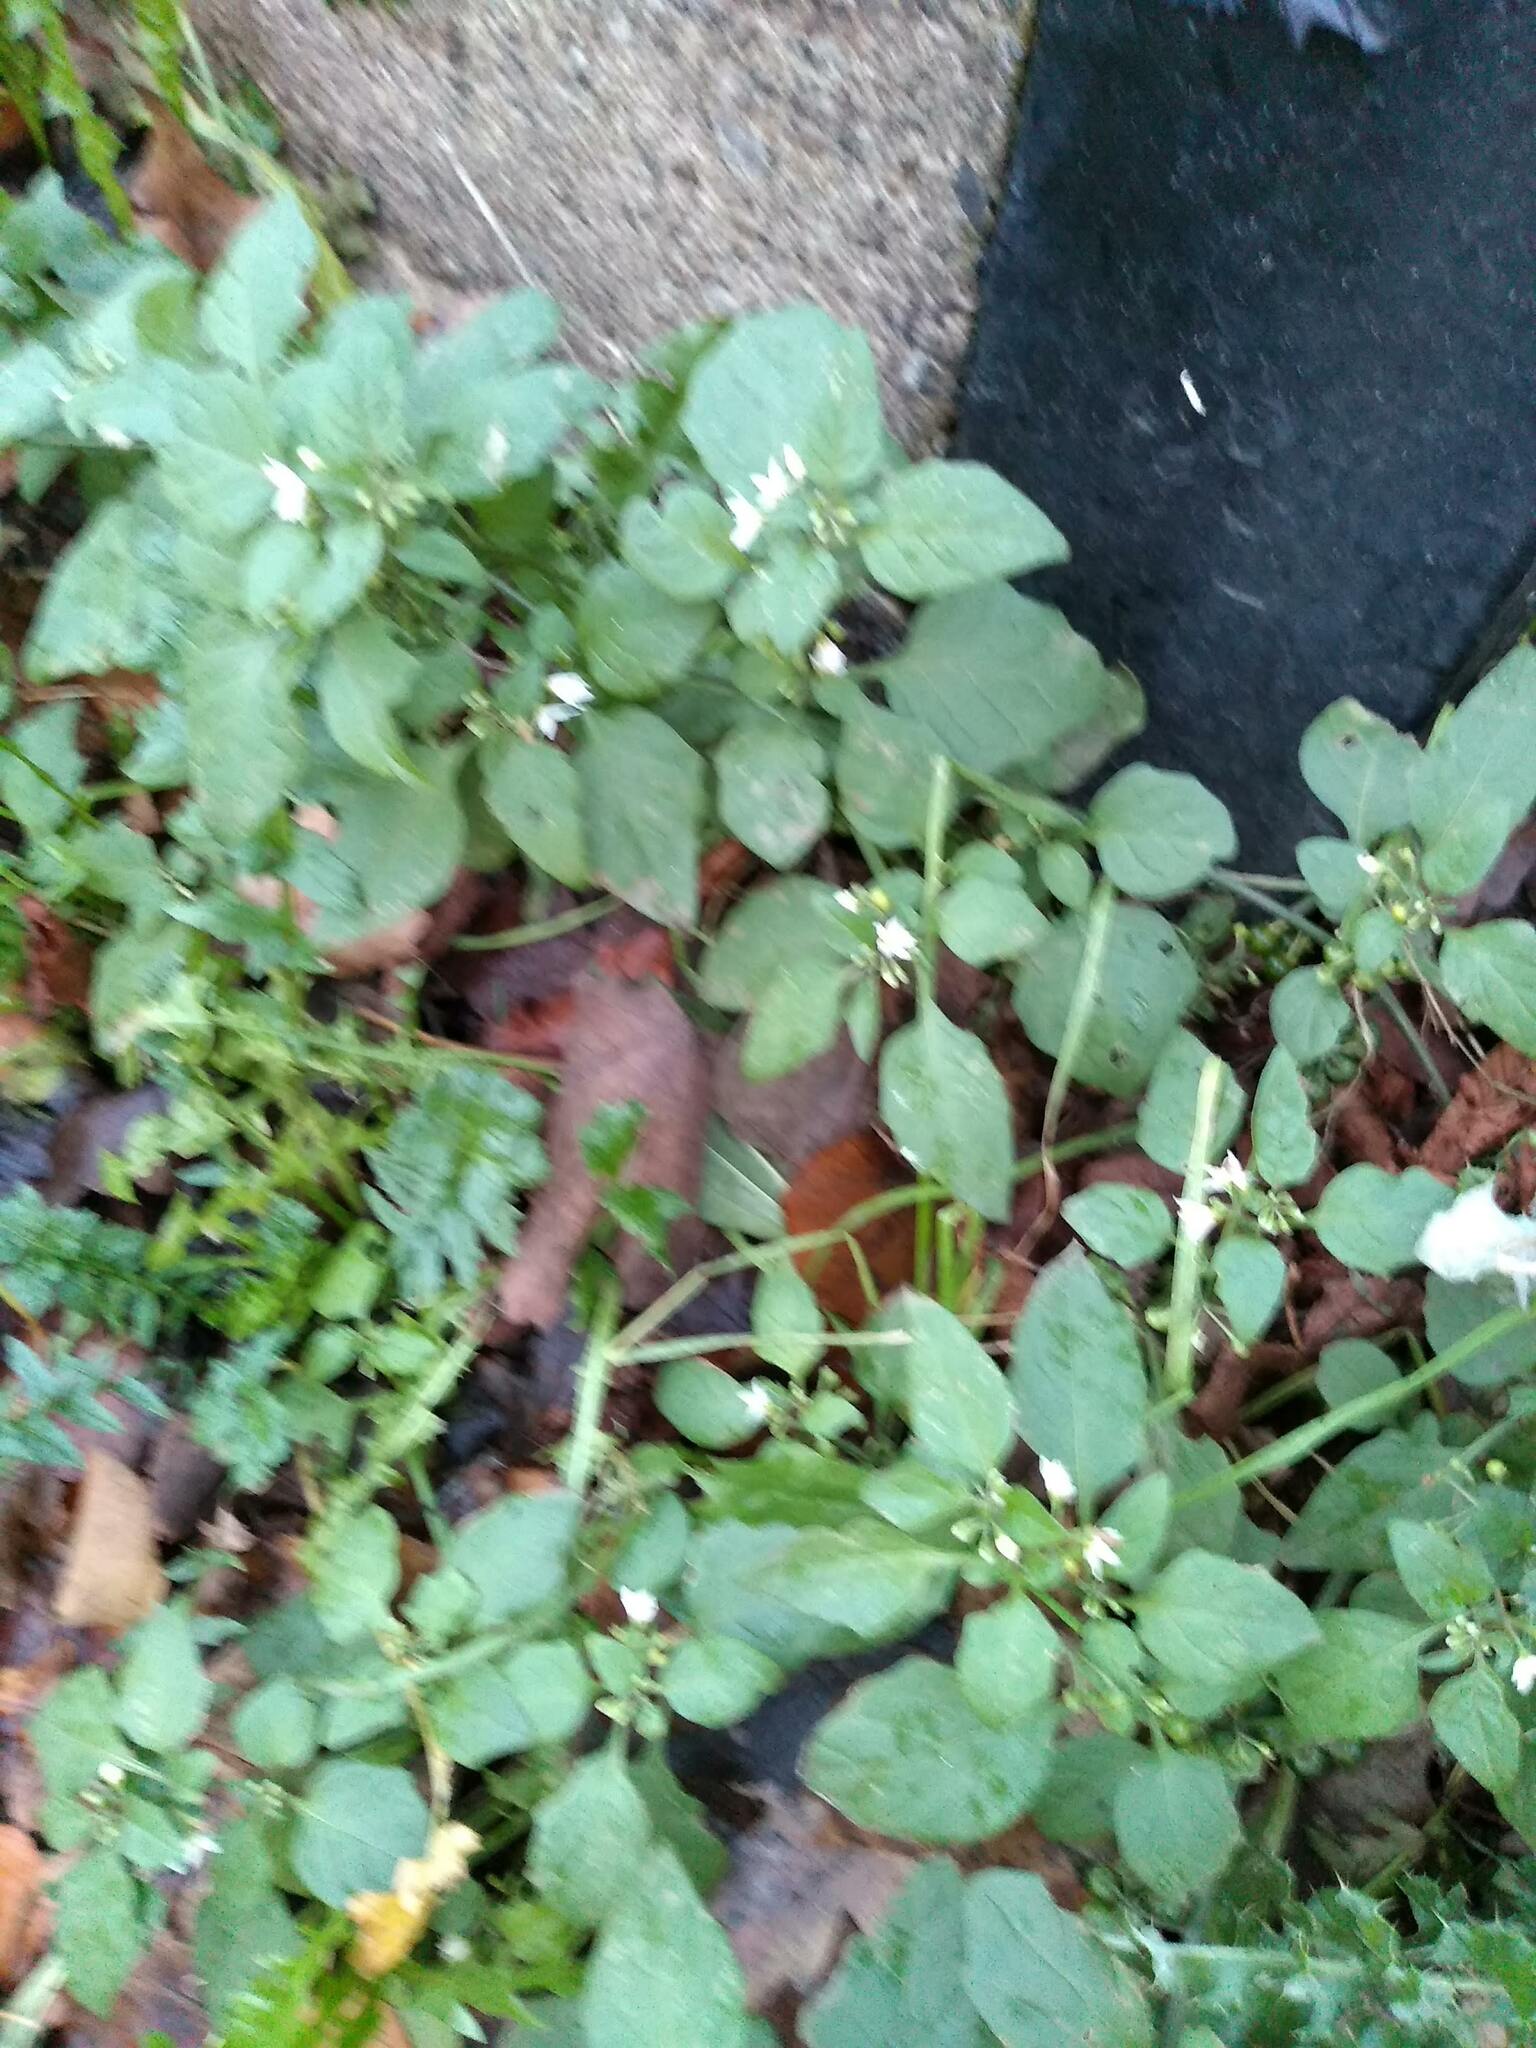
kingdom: Plantae
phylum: Tracheophyta
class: Magnoliopsida
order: Solanales
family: Solanaceae
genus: Solanum
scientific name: Solanum nigrum
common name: Black nightshade
